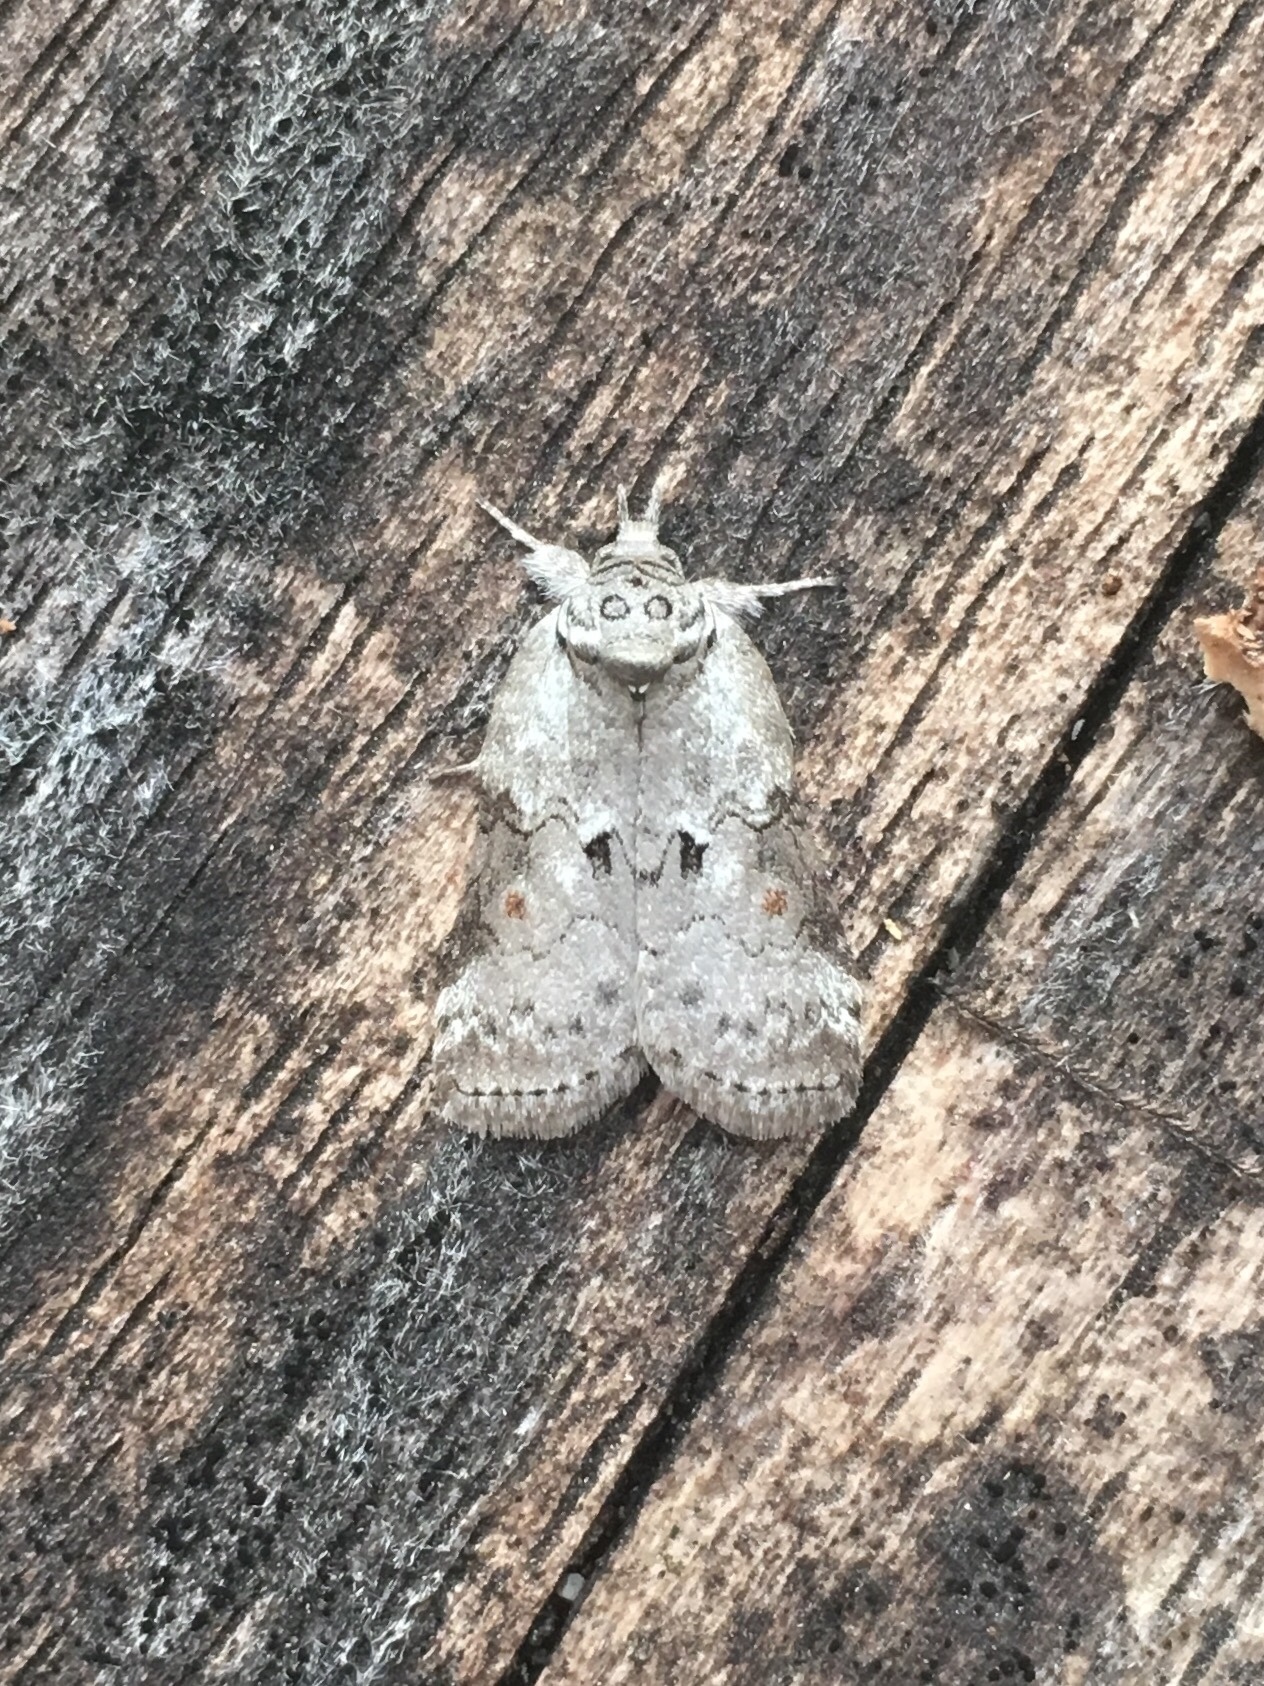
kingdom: Animalia
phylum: Arthropoda
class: Insecta
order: Lepidoptera
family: Nolidae
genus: Nycteola
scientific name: Nycteola metaspilella
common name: Forgotten frigid owlet
